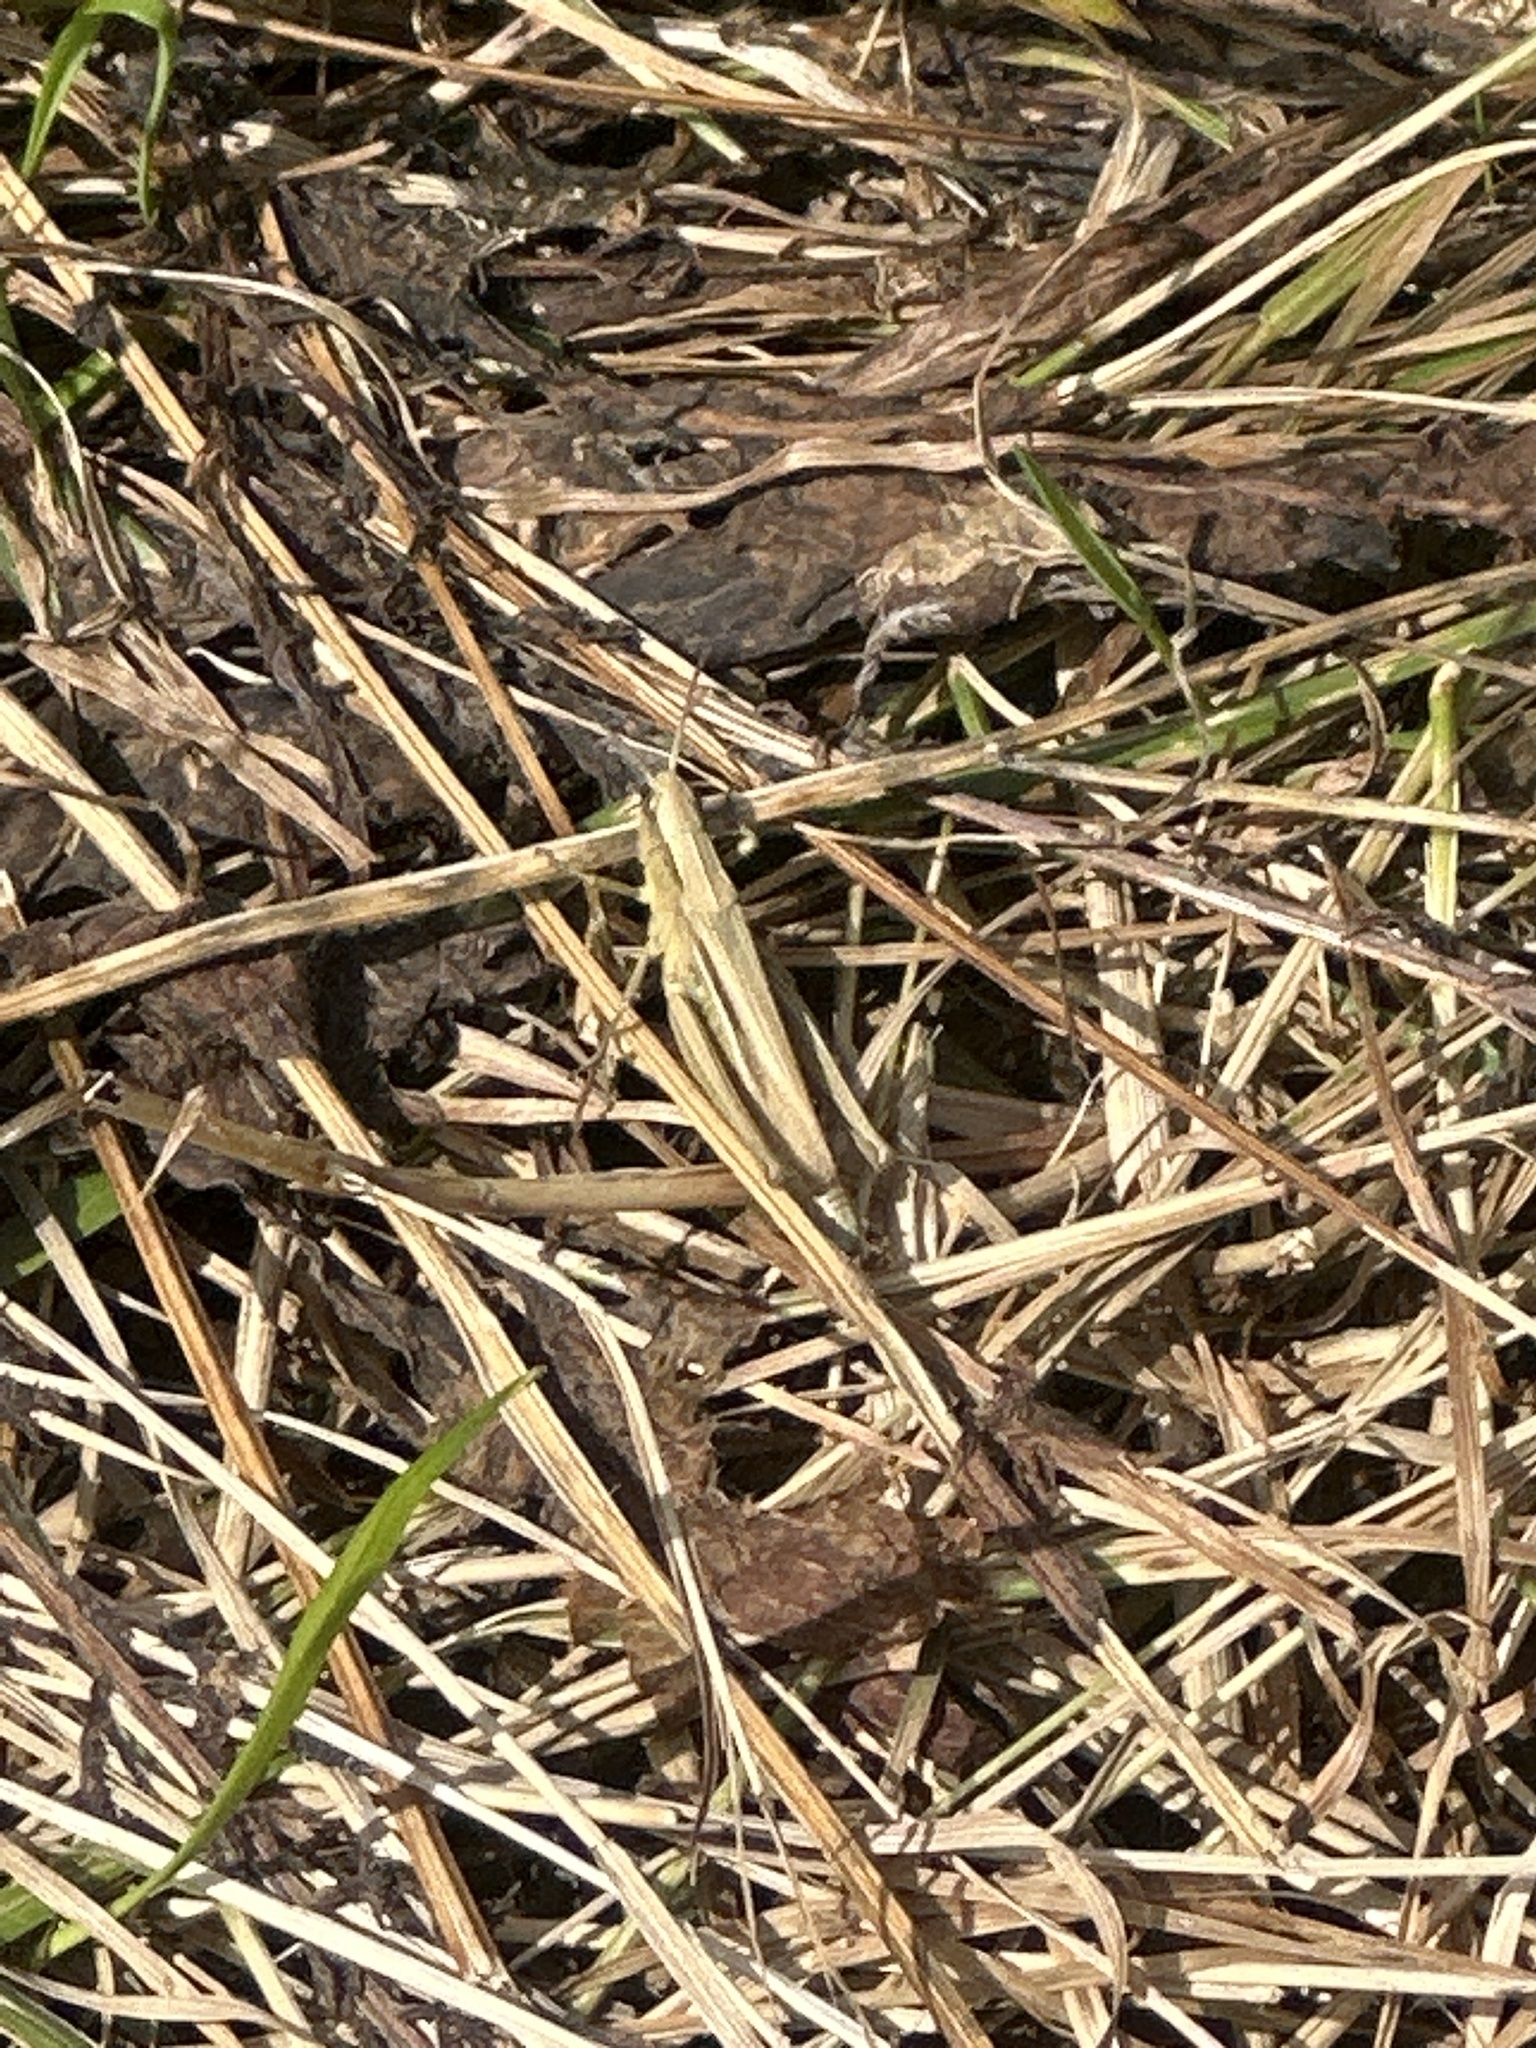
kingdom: Animalia
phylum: Arthropoda
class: Insecta
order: Orthoptera
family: Acrididae
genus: Chorthippus
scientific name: Chorthippus albomarginatus
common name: Lesser marsh grasshopper
